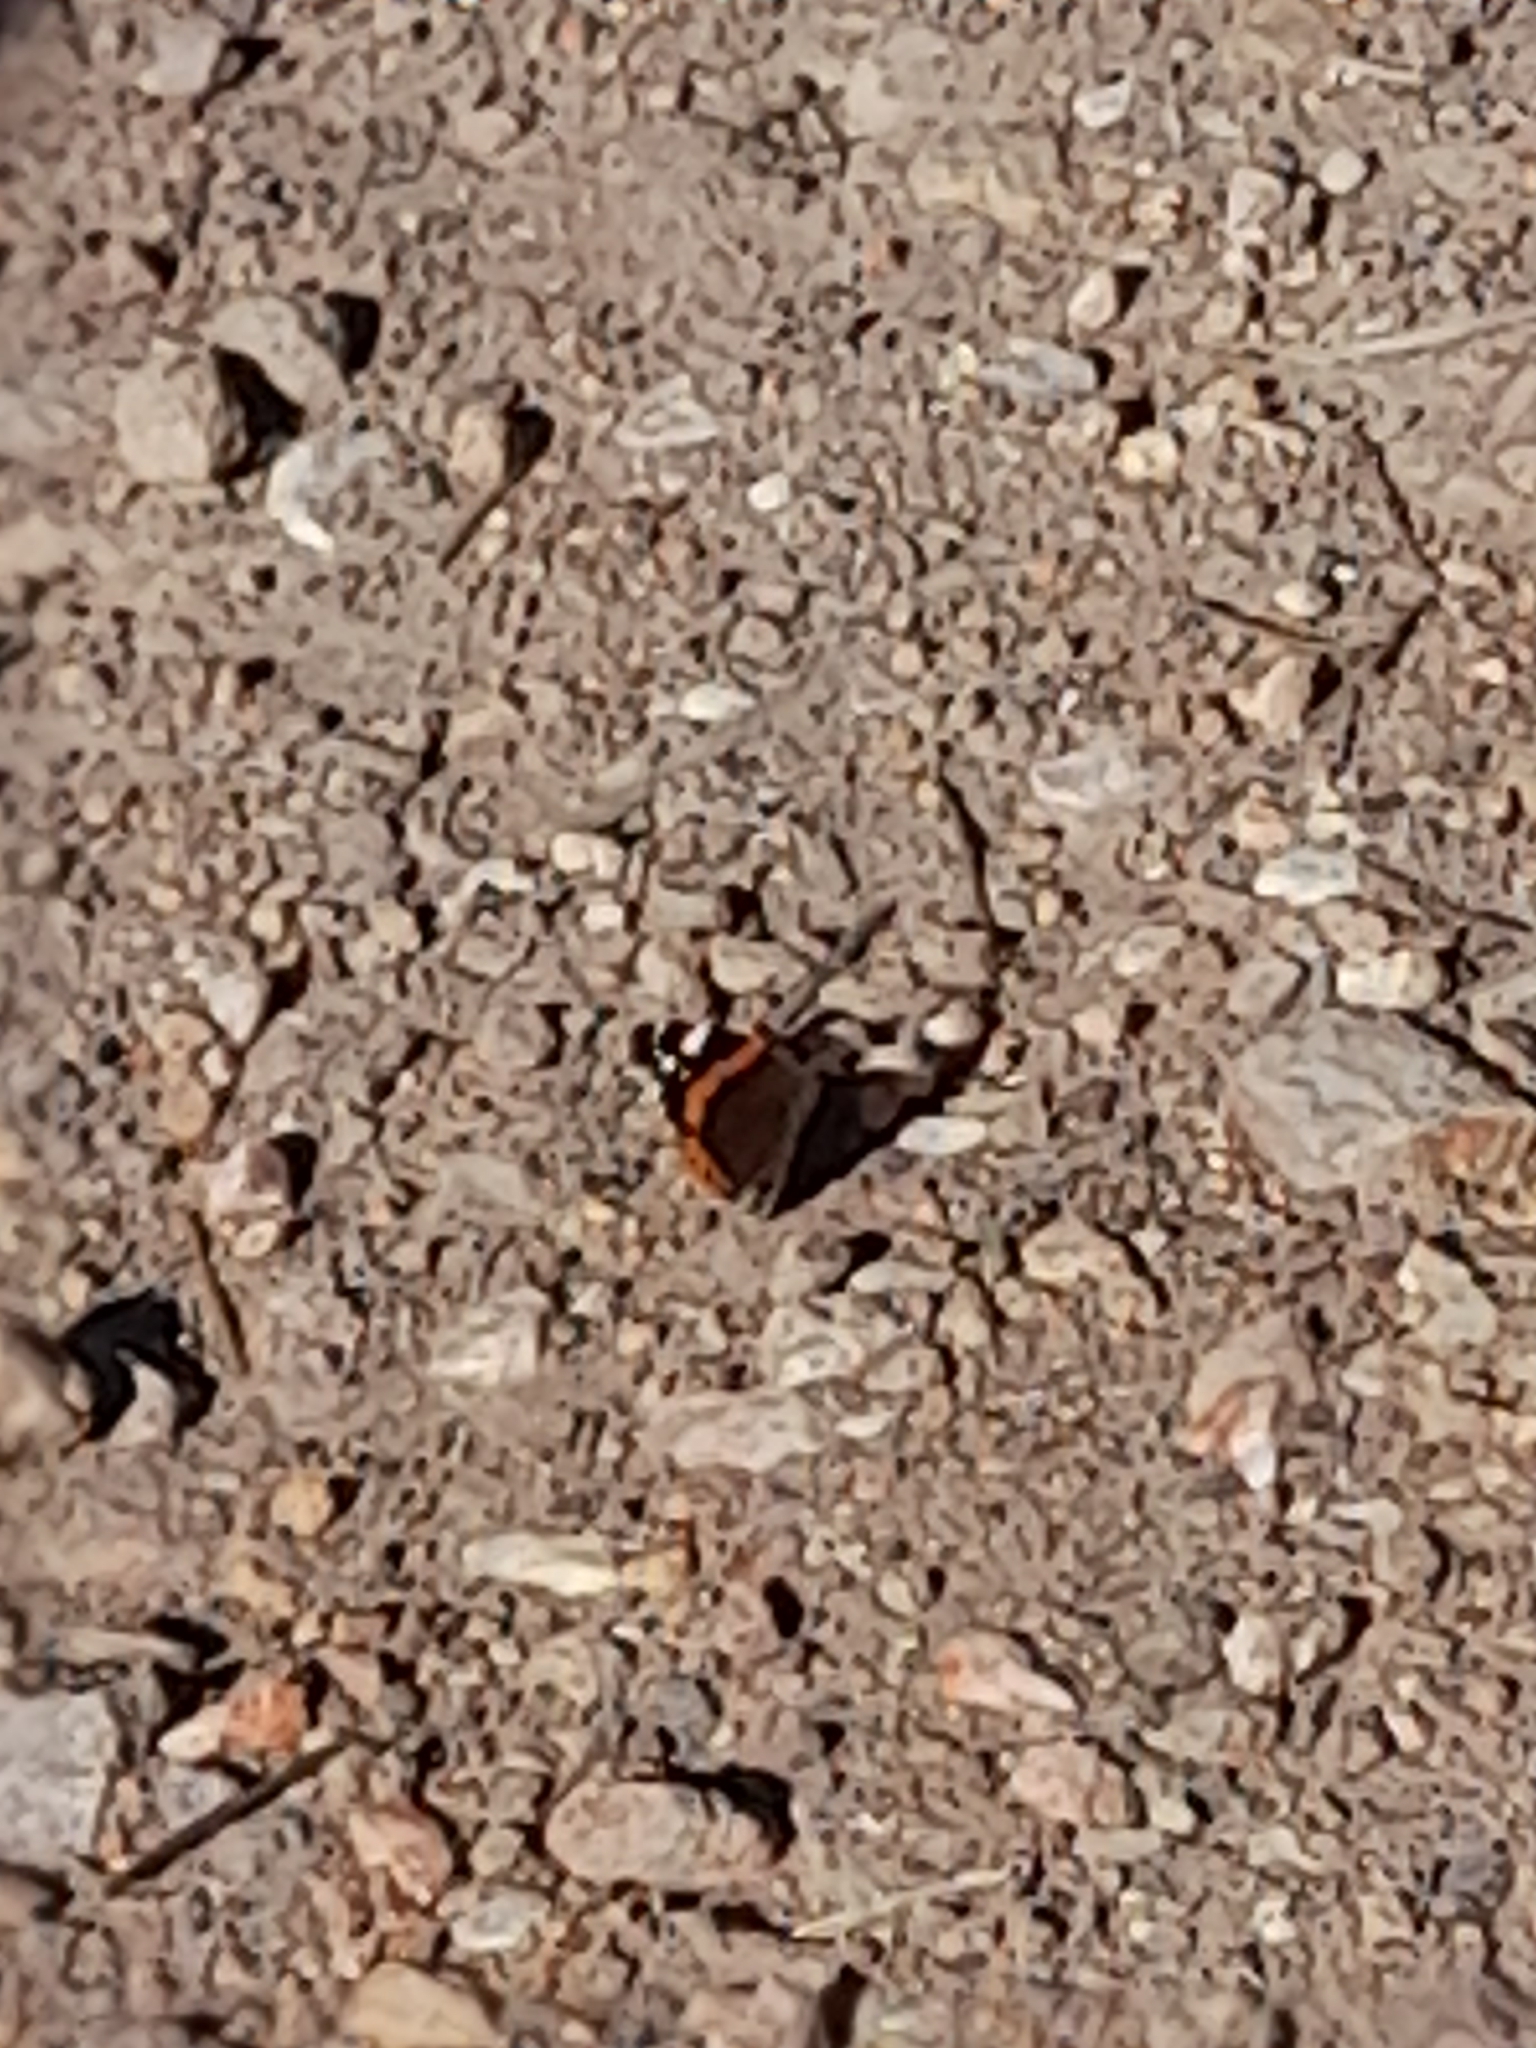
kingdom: Animalia
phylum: Arthropoda
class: Insecta
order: Lepidoptera
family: Nymphalidae
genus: Vanessa
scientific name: Vanessa atalanta
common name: Red admiral
